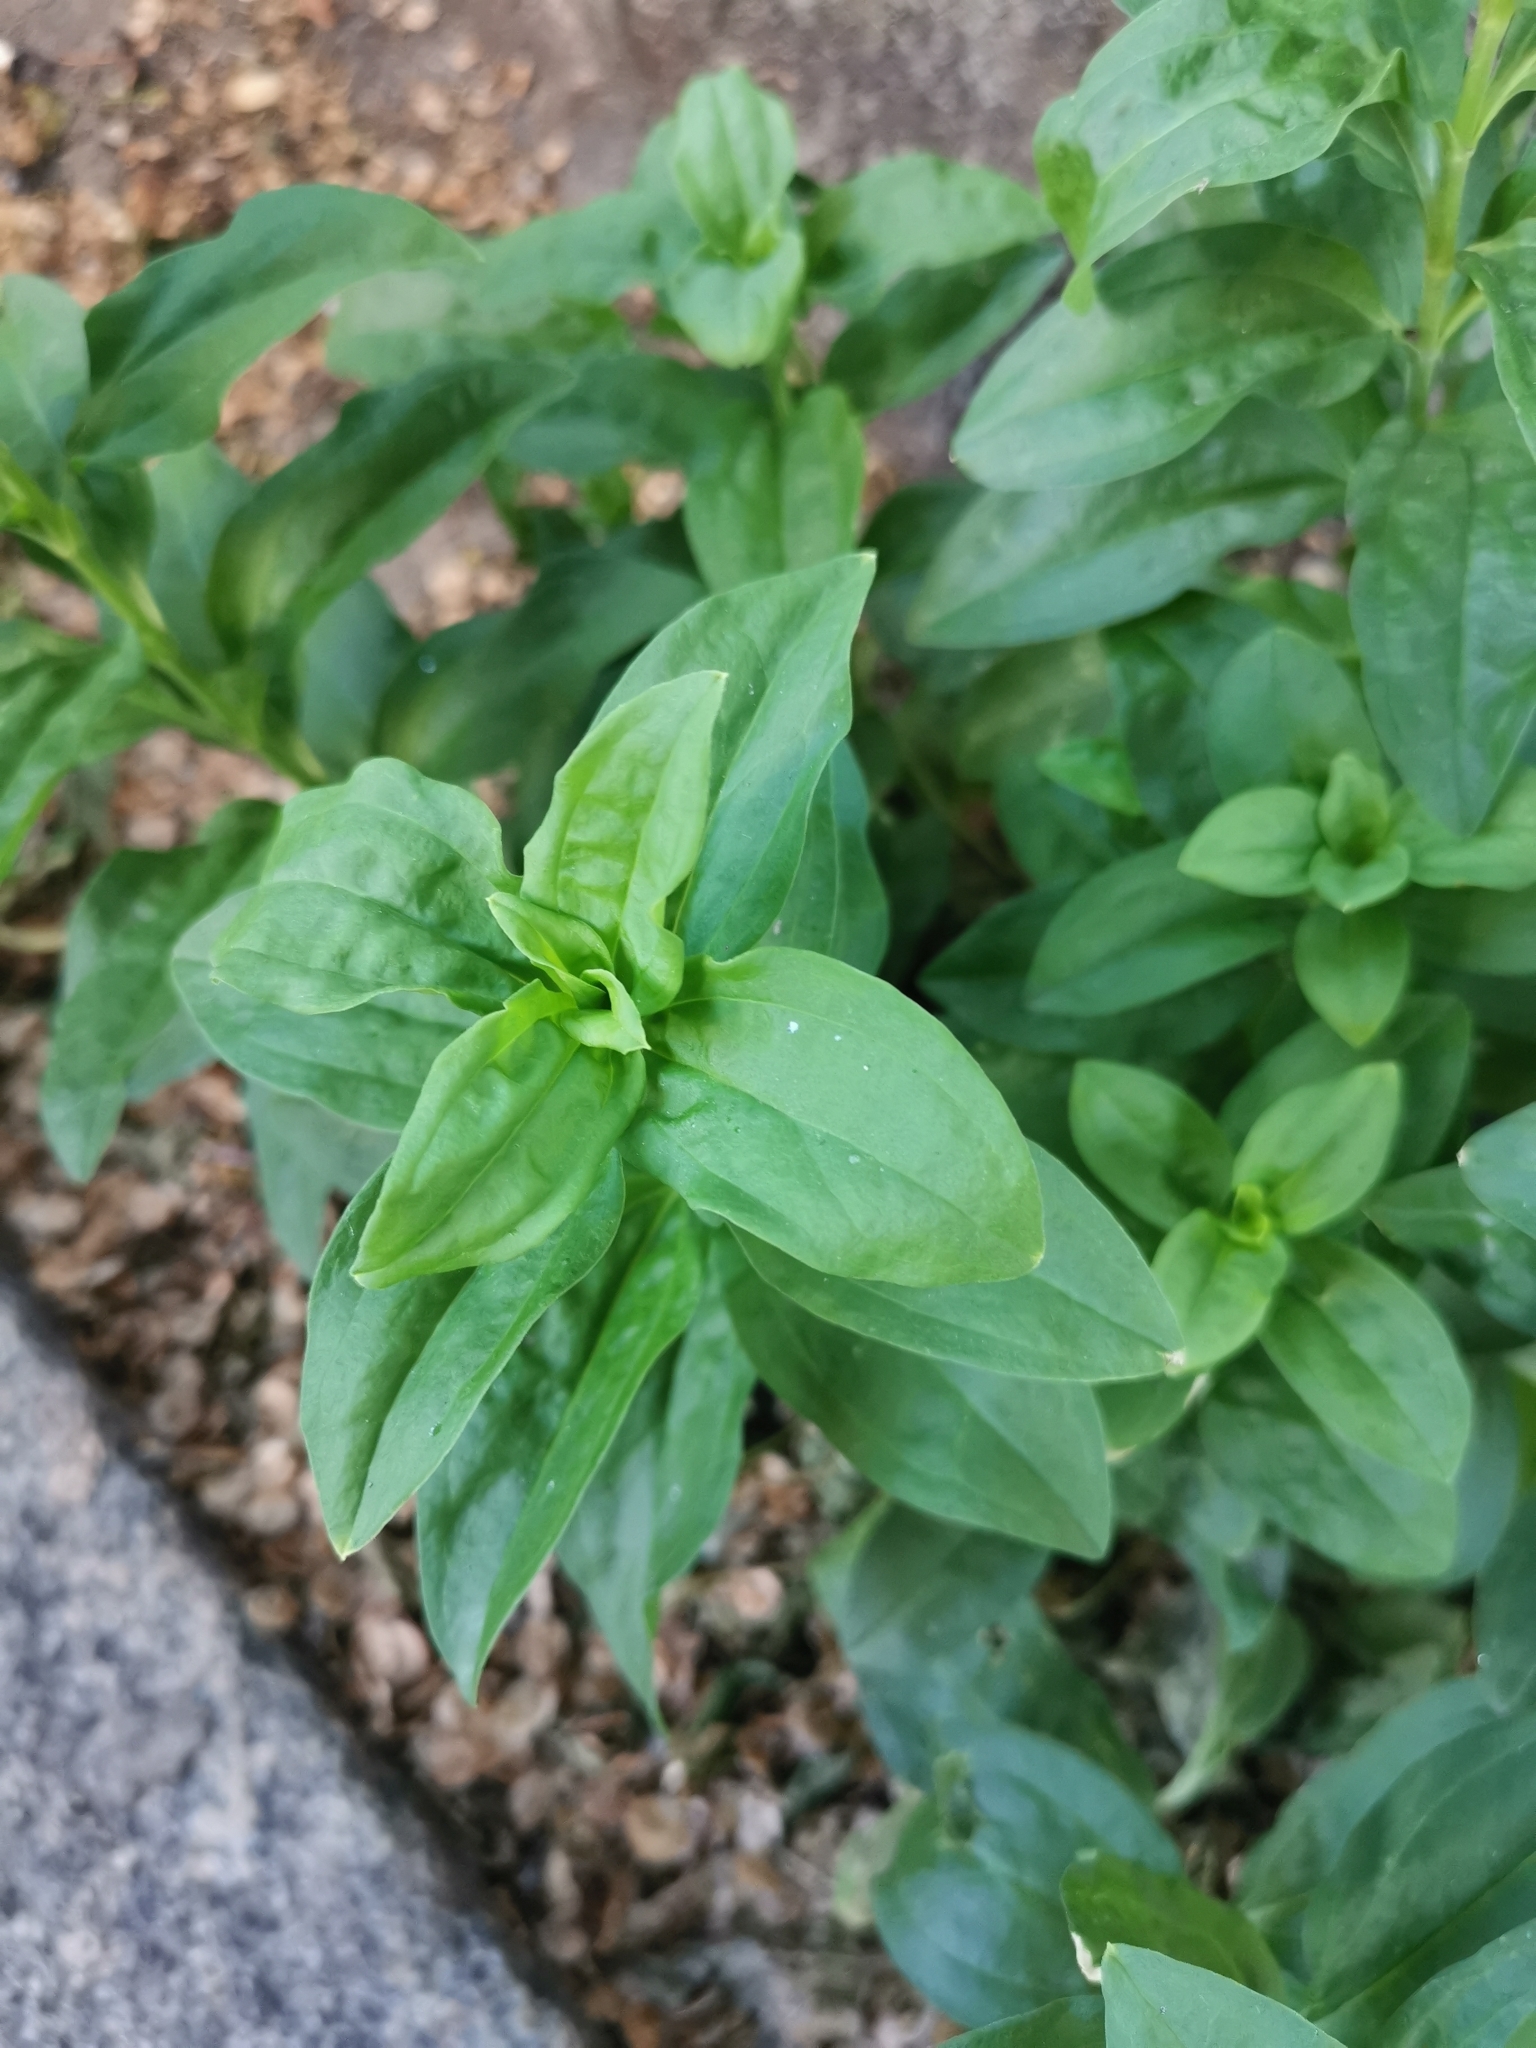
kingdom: Plantae
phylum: Tracheophyta
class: Magnoliopsida
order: Caryophyllales
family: Caryophyllaceae
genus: Saponaria
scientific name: Saponaria officinalis
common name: Soapwort
